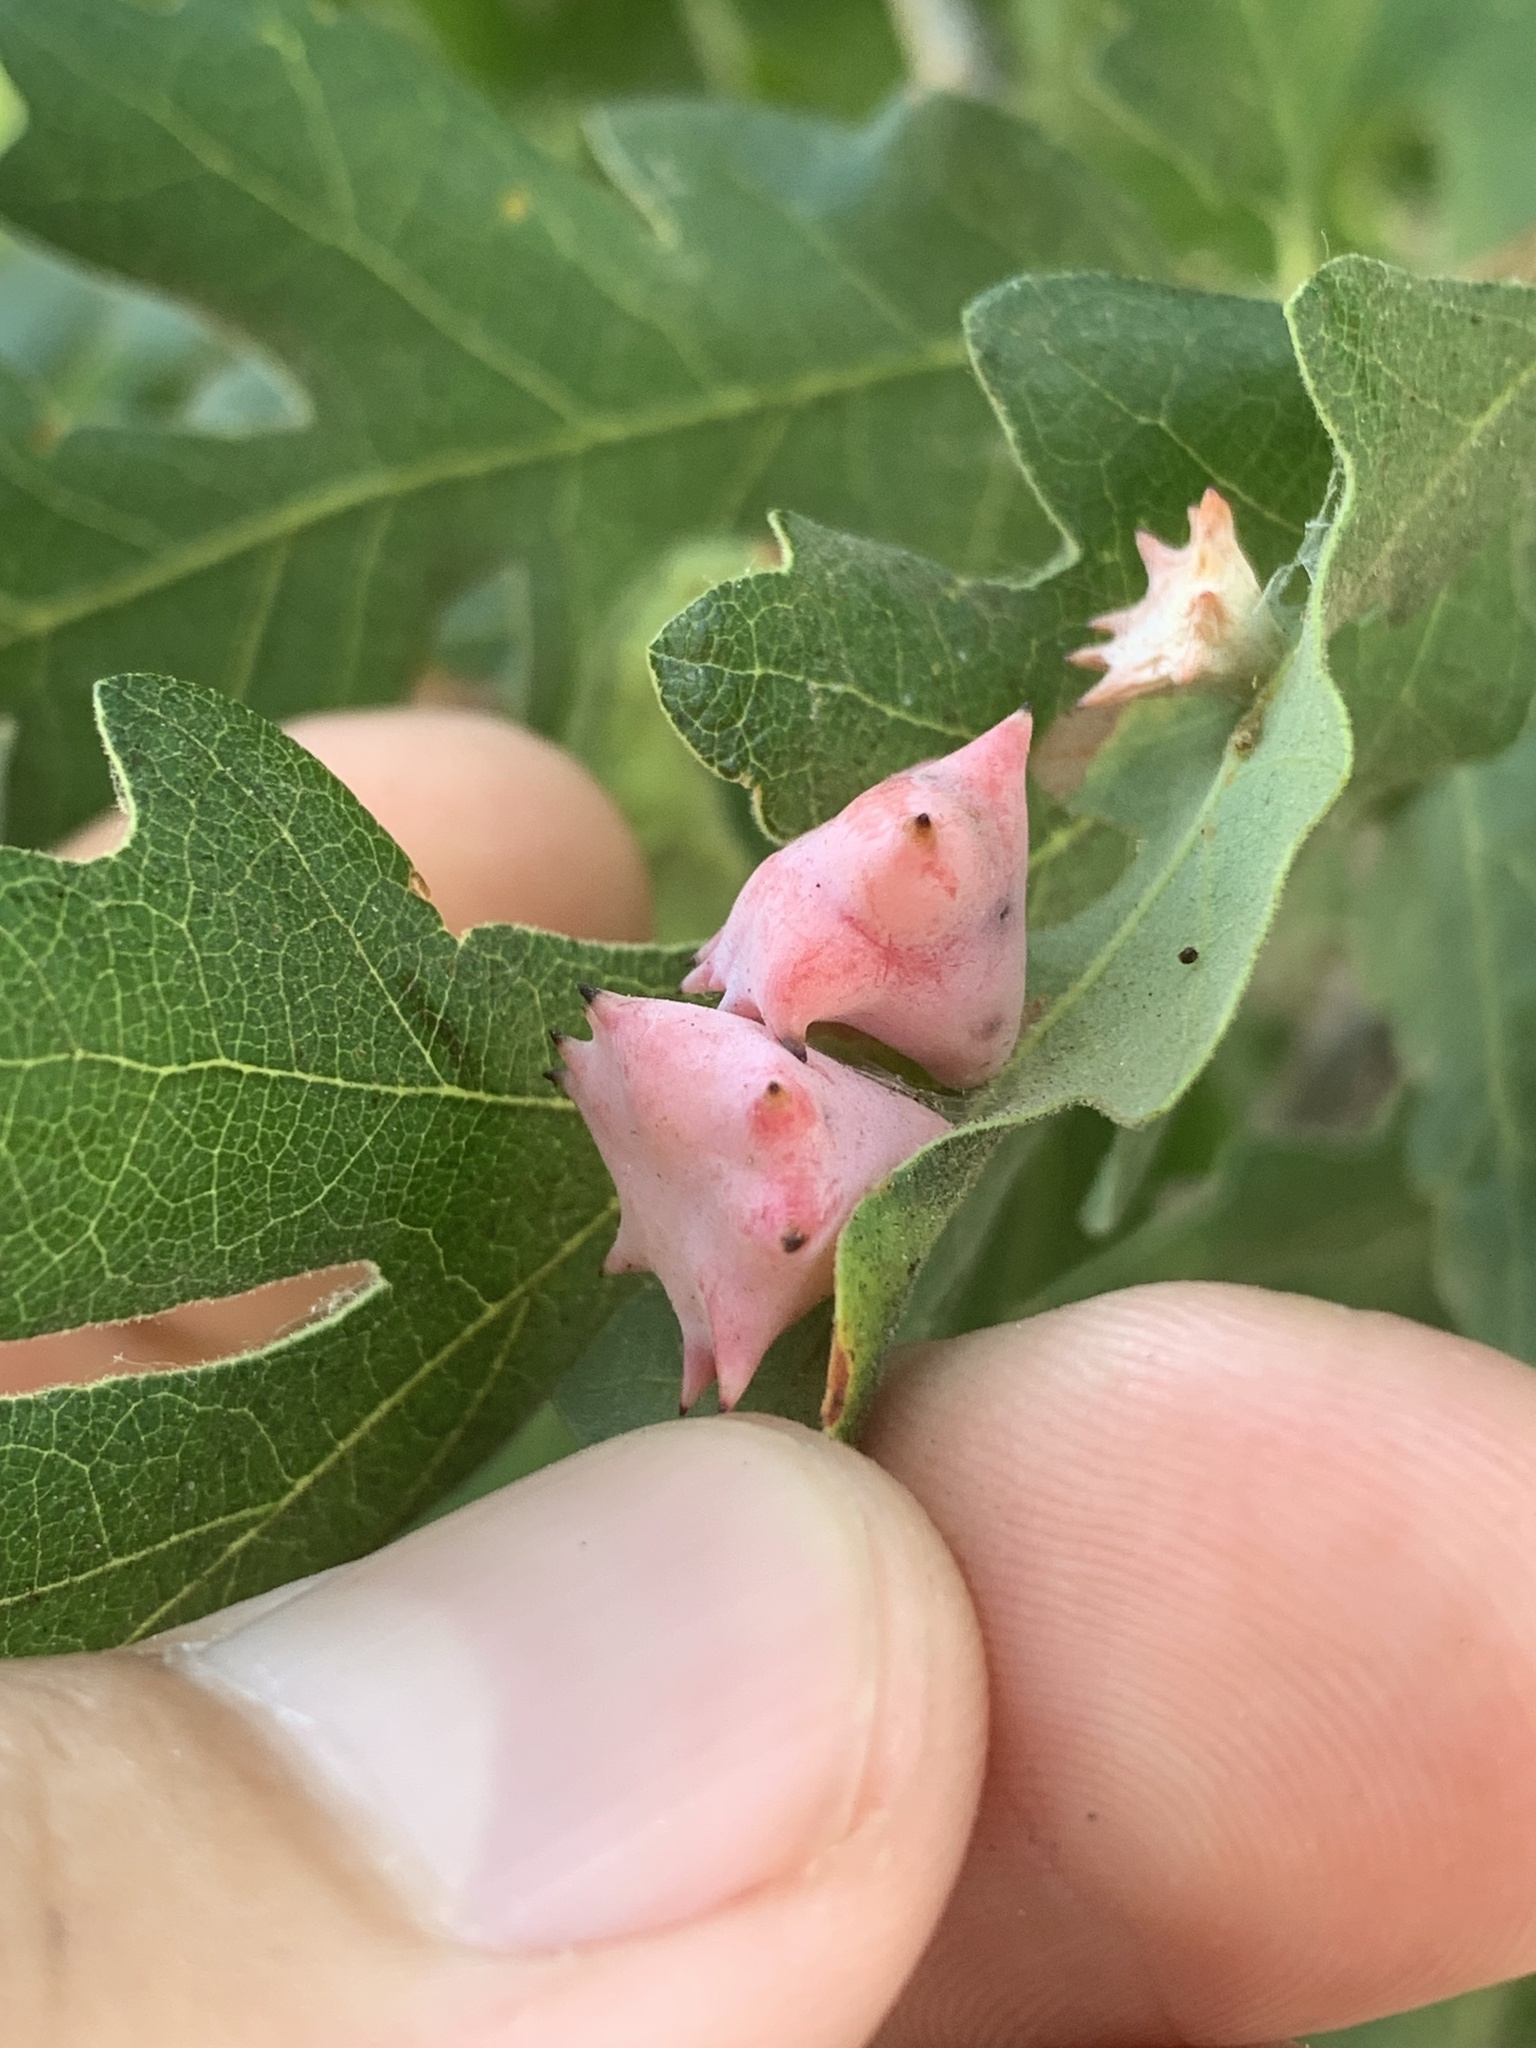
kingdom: Animalia
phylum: Arthropoda
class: Insecta
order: Hymenoptera
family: Cynipidae
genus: Cynips
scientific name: Cynips douglasi
